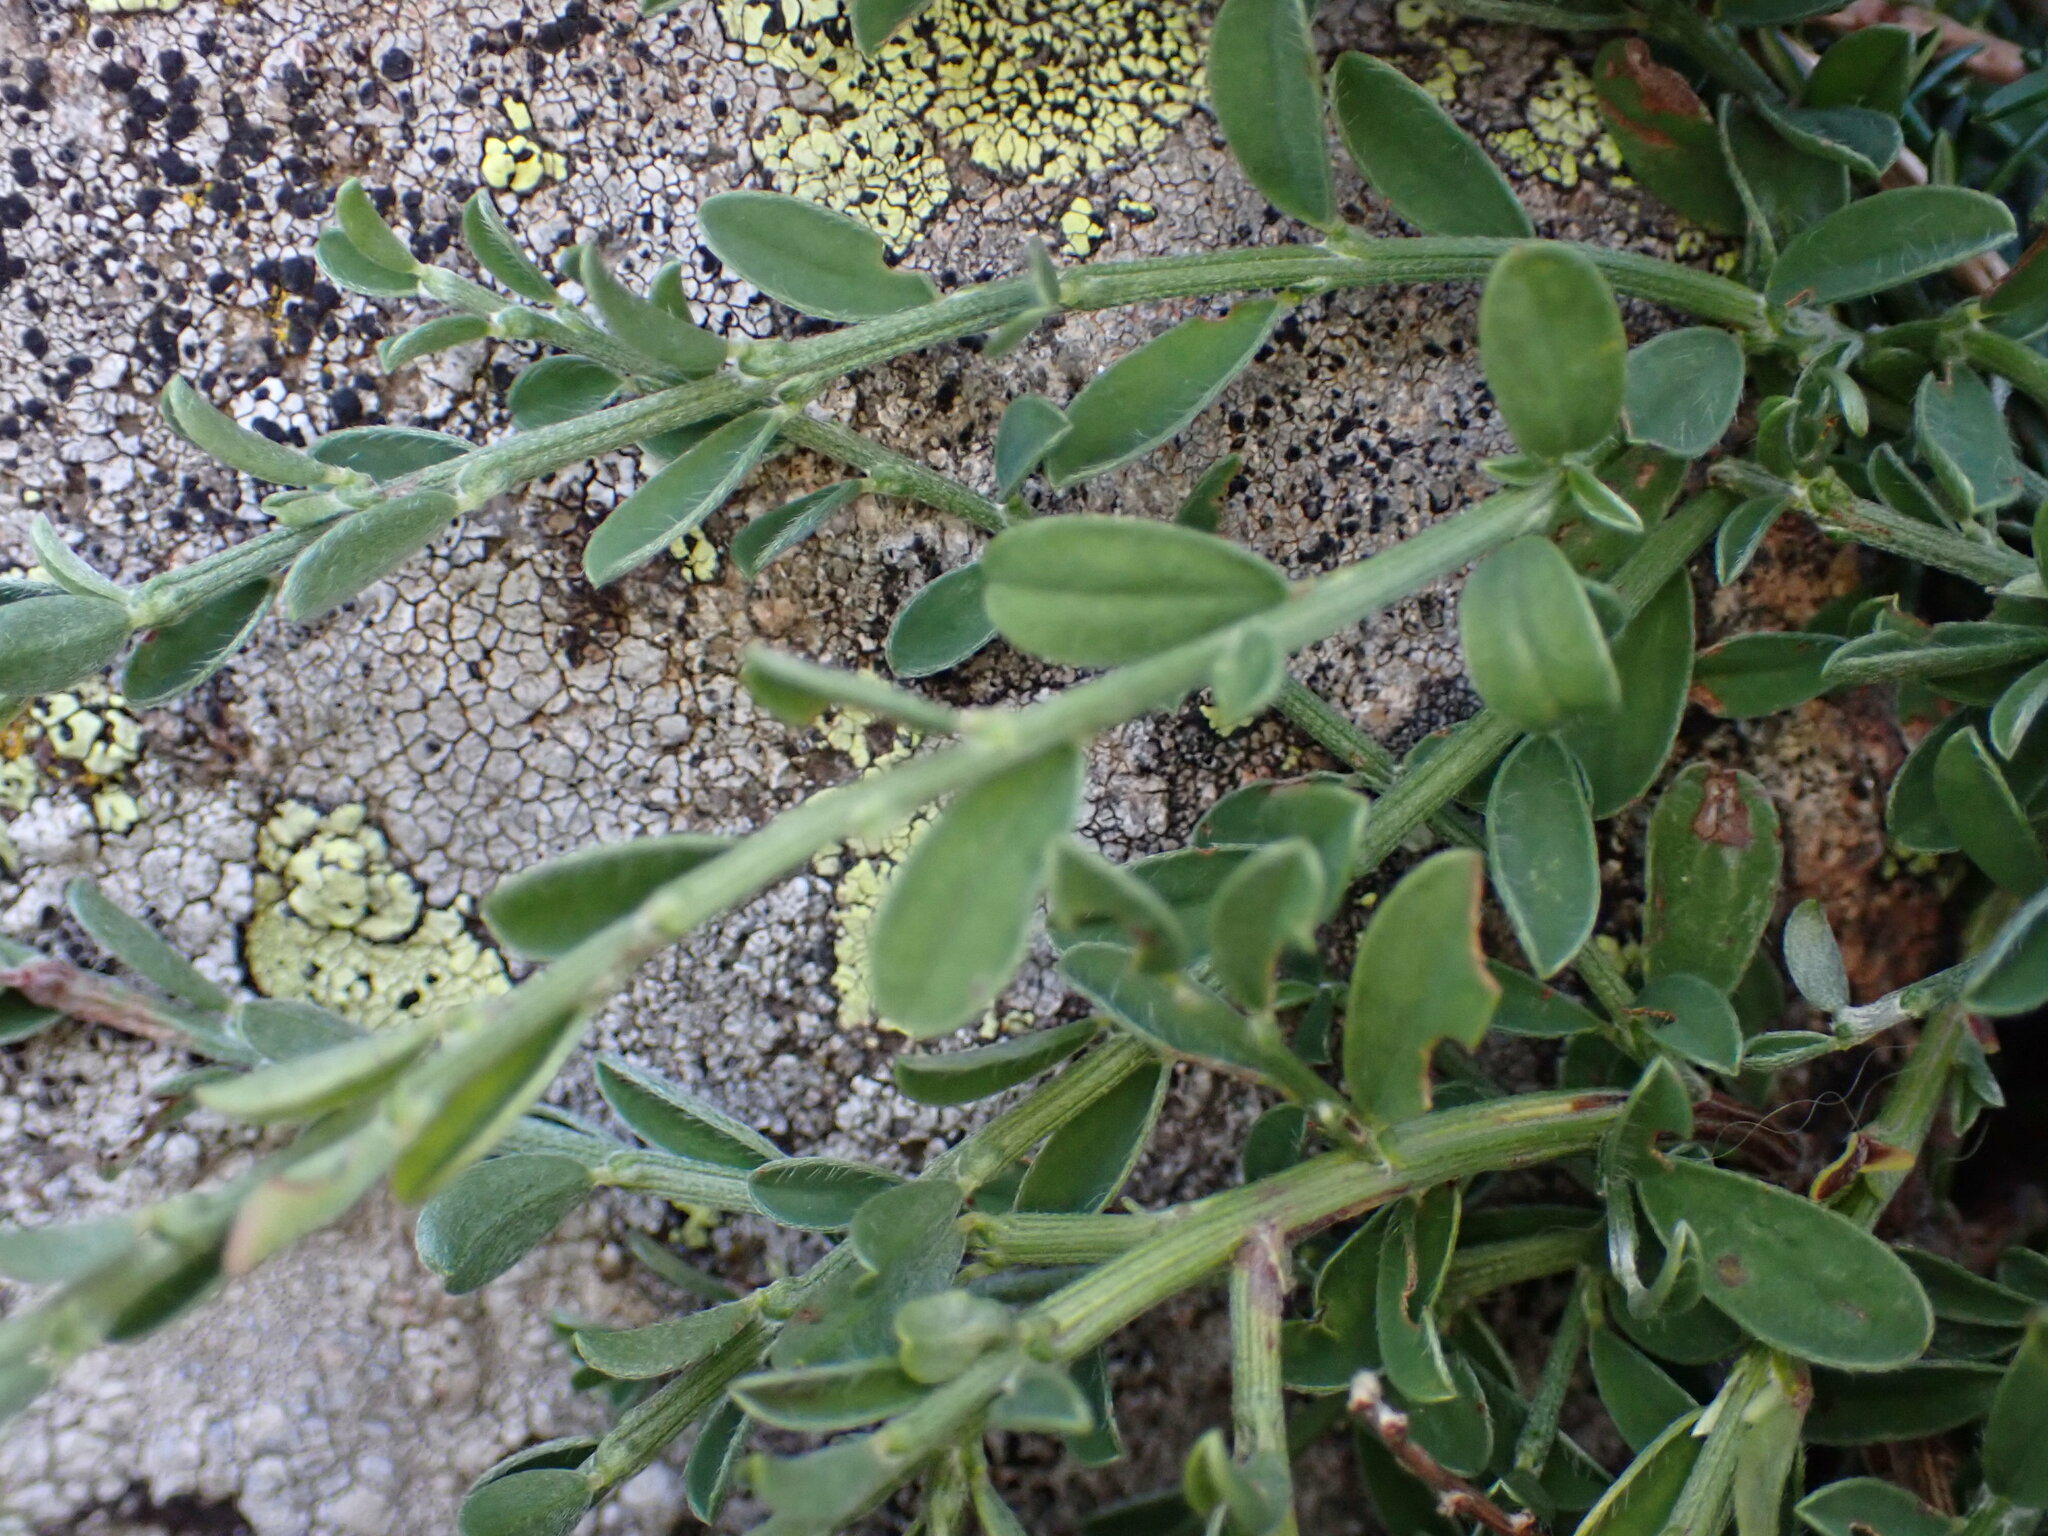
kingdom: Plantae
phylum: Tracheophyta
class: Magnoliopsida
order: Ericales
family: Ericaceae
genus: Erica
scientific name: Erica vagans
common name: Cornish heath
